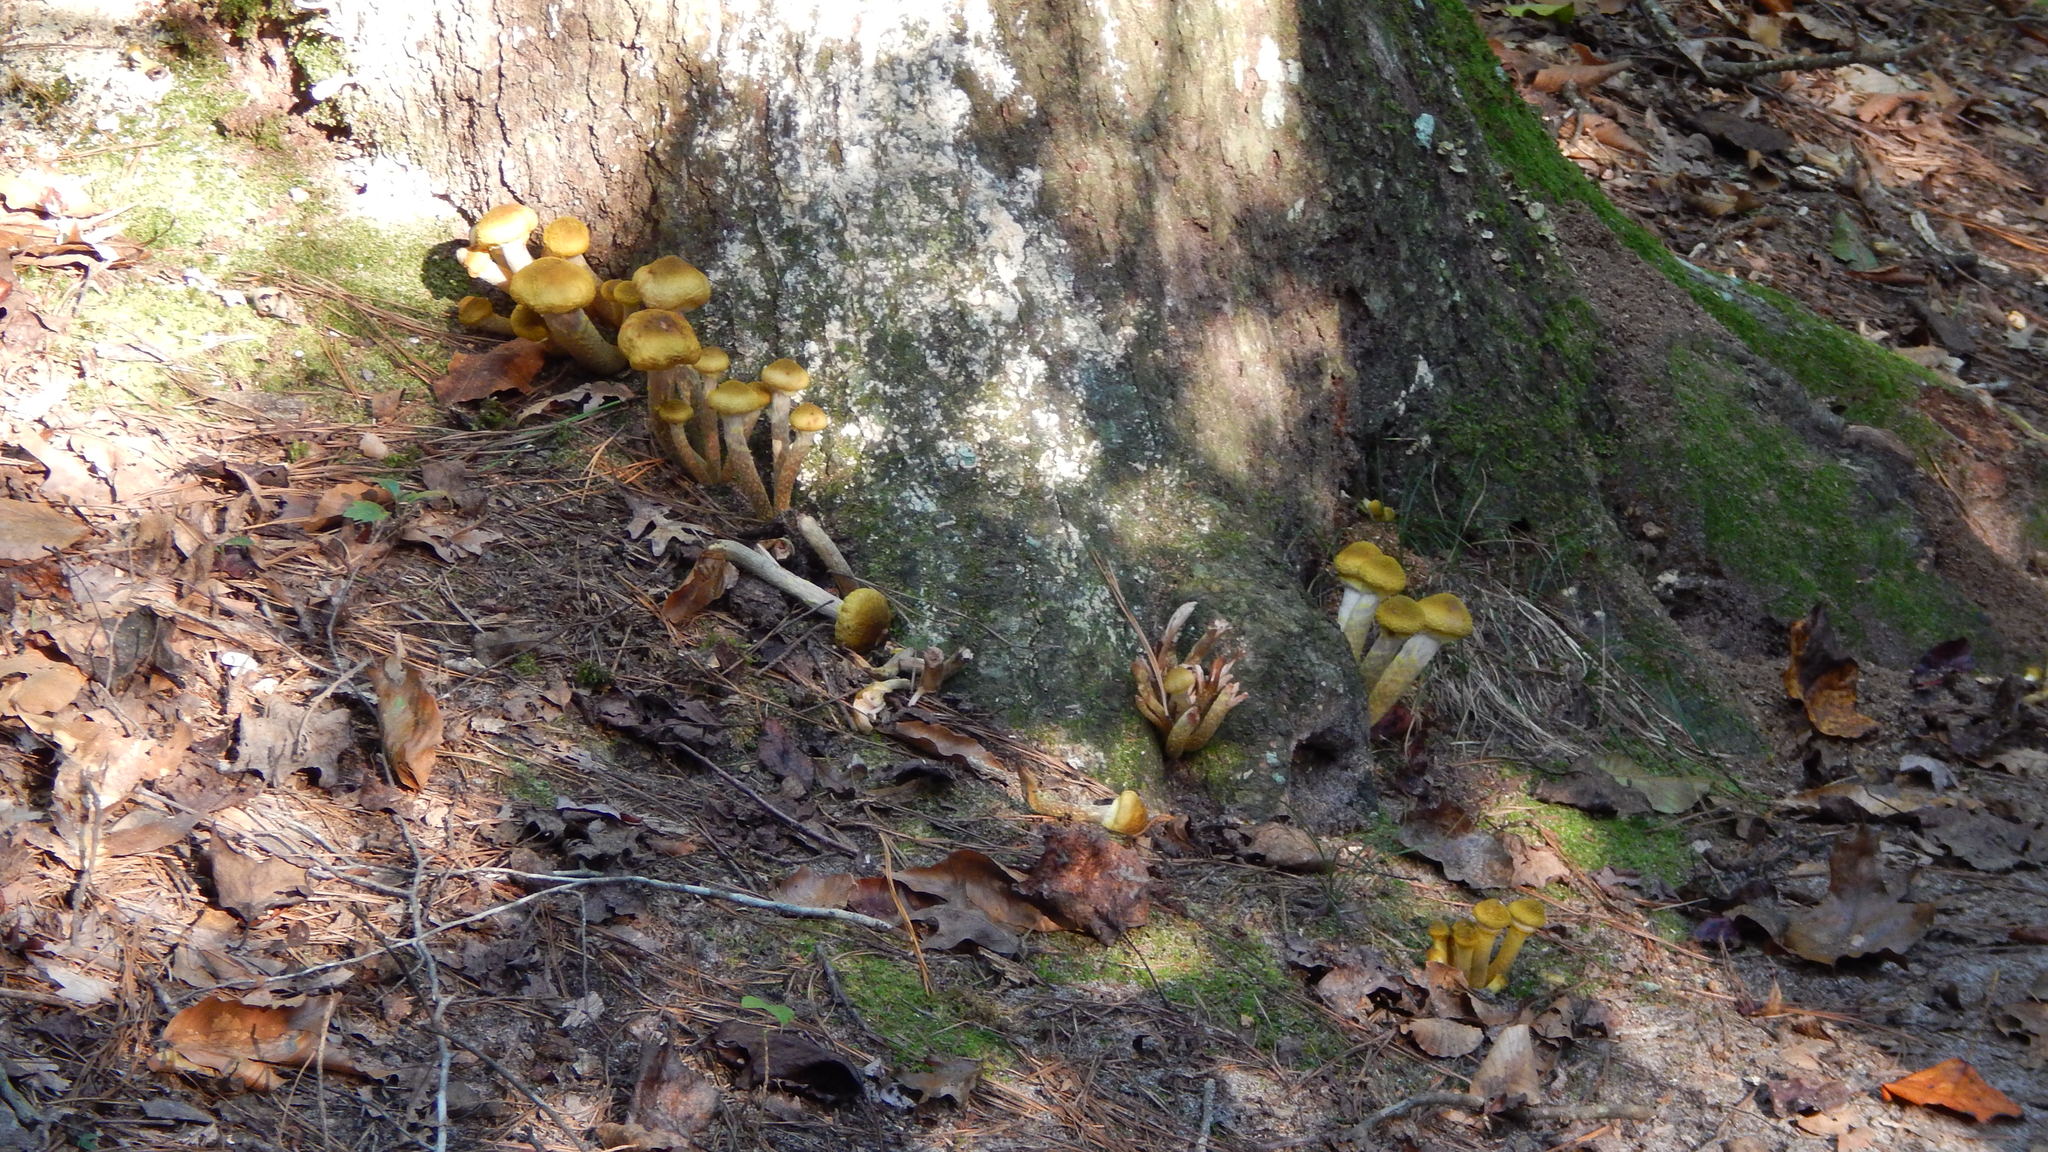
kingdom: Fungi
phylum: Basidiomycota
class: Agaricomycetes
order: Agaricales
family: Physalacriaceae
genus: Armillaria
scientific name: Armillaria mellea
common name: Honey fungus
